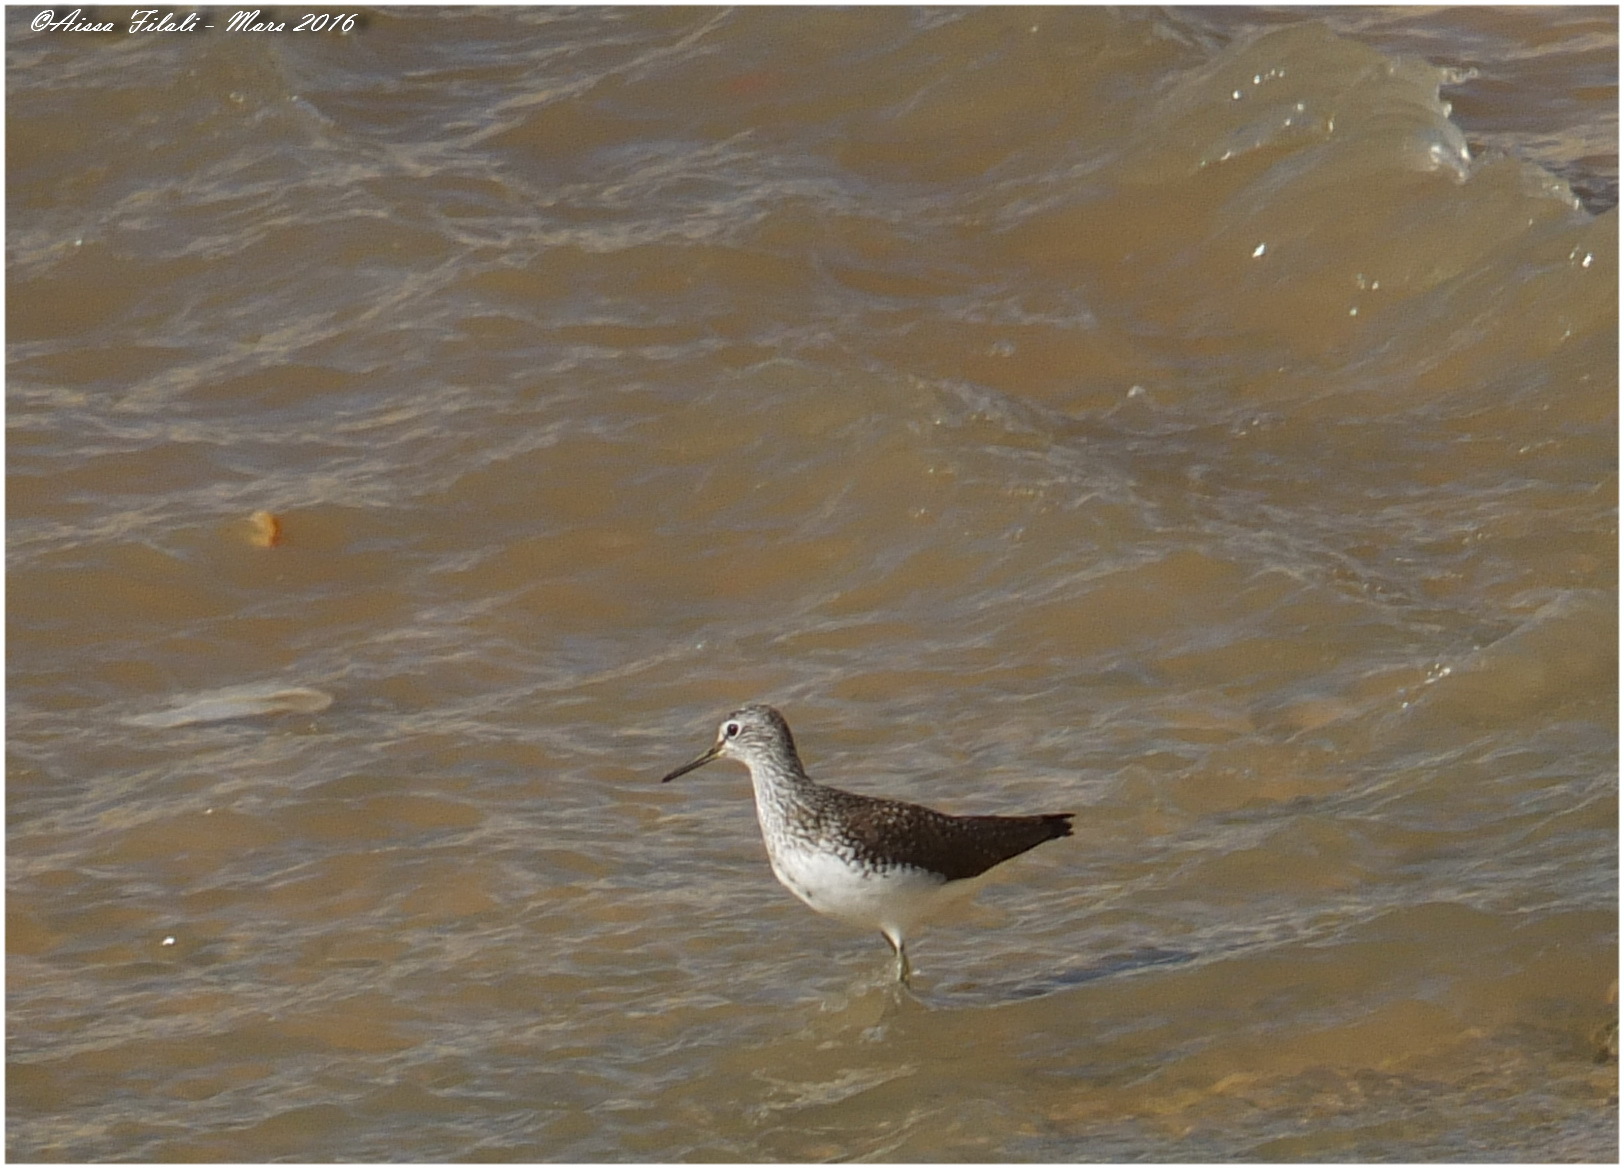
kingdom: Animalia
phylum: Chordata
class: Aves
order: Charadriiformes
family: Scolopacidae
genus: Tringa
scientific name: Tringa ochropus
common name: Green sandpiper
